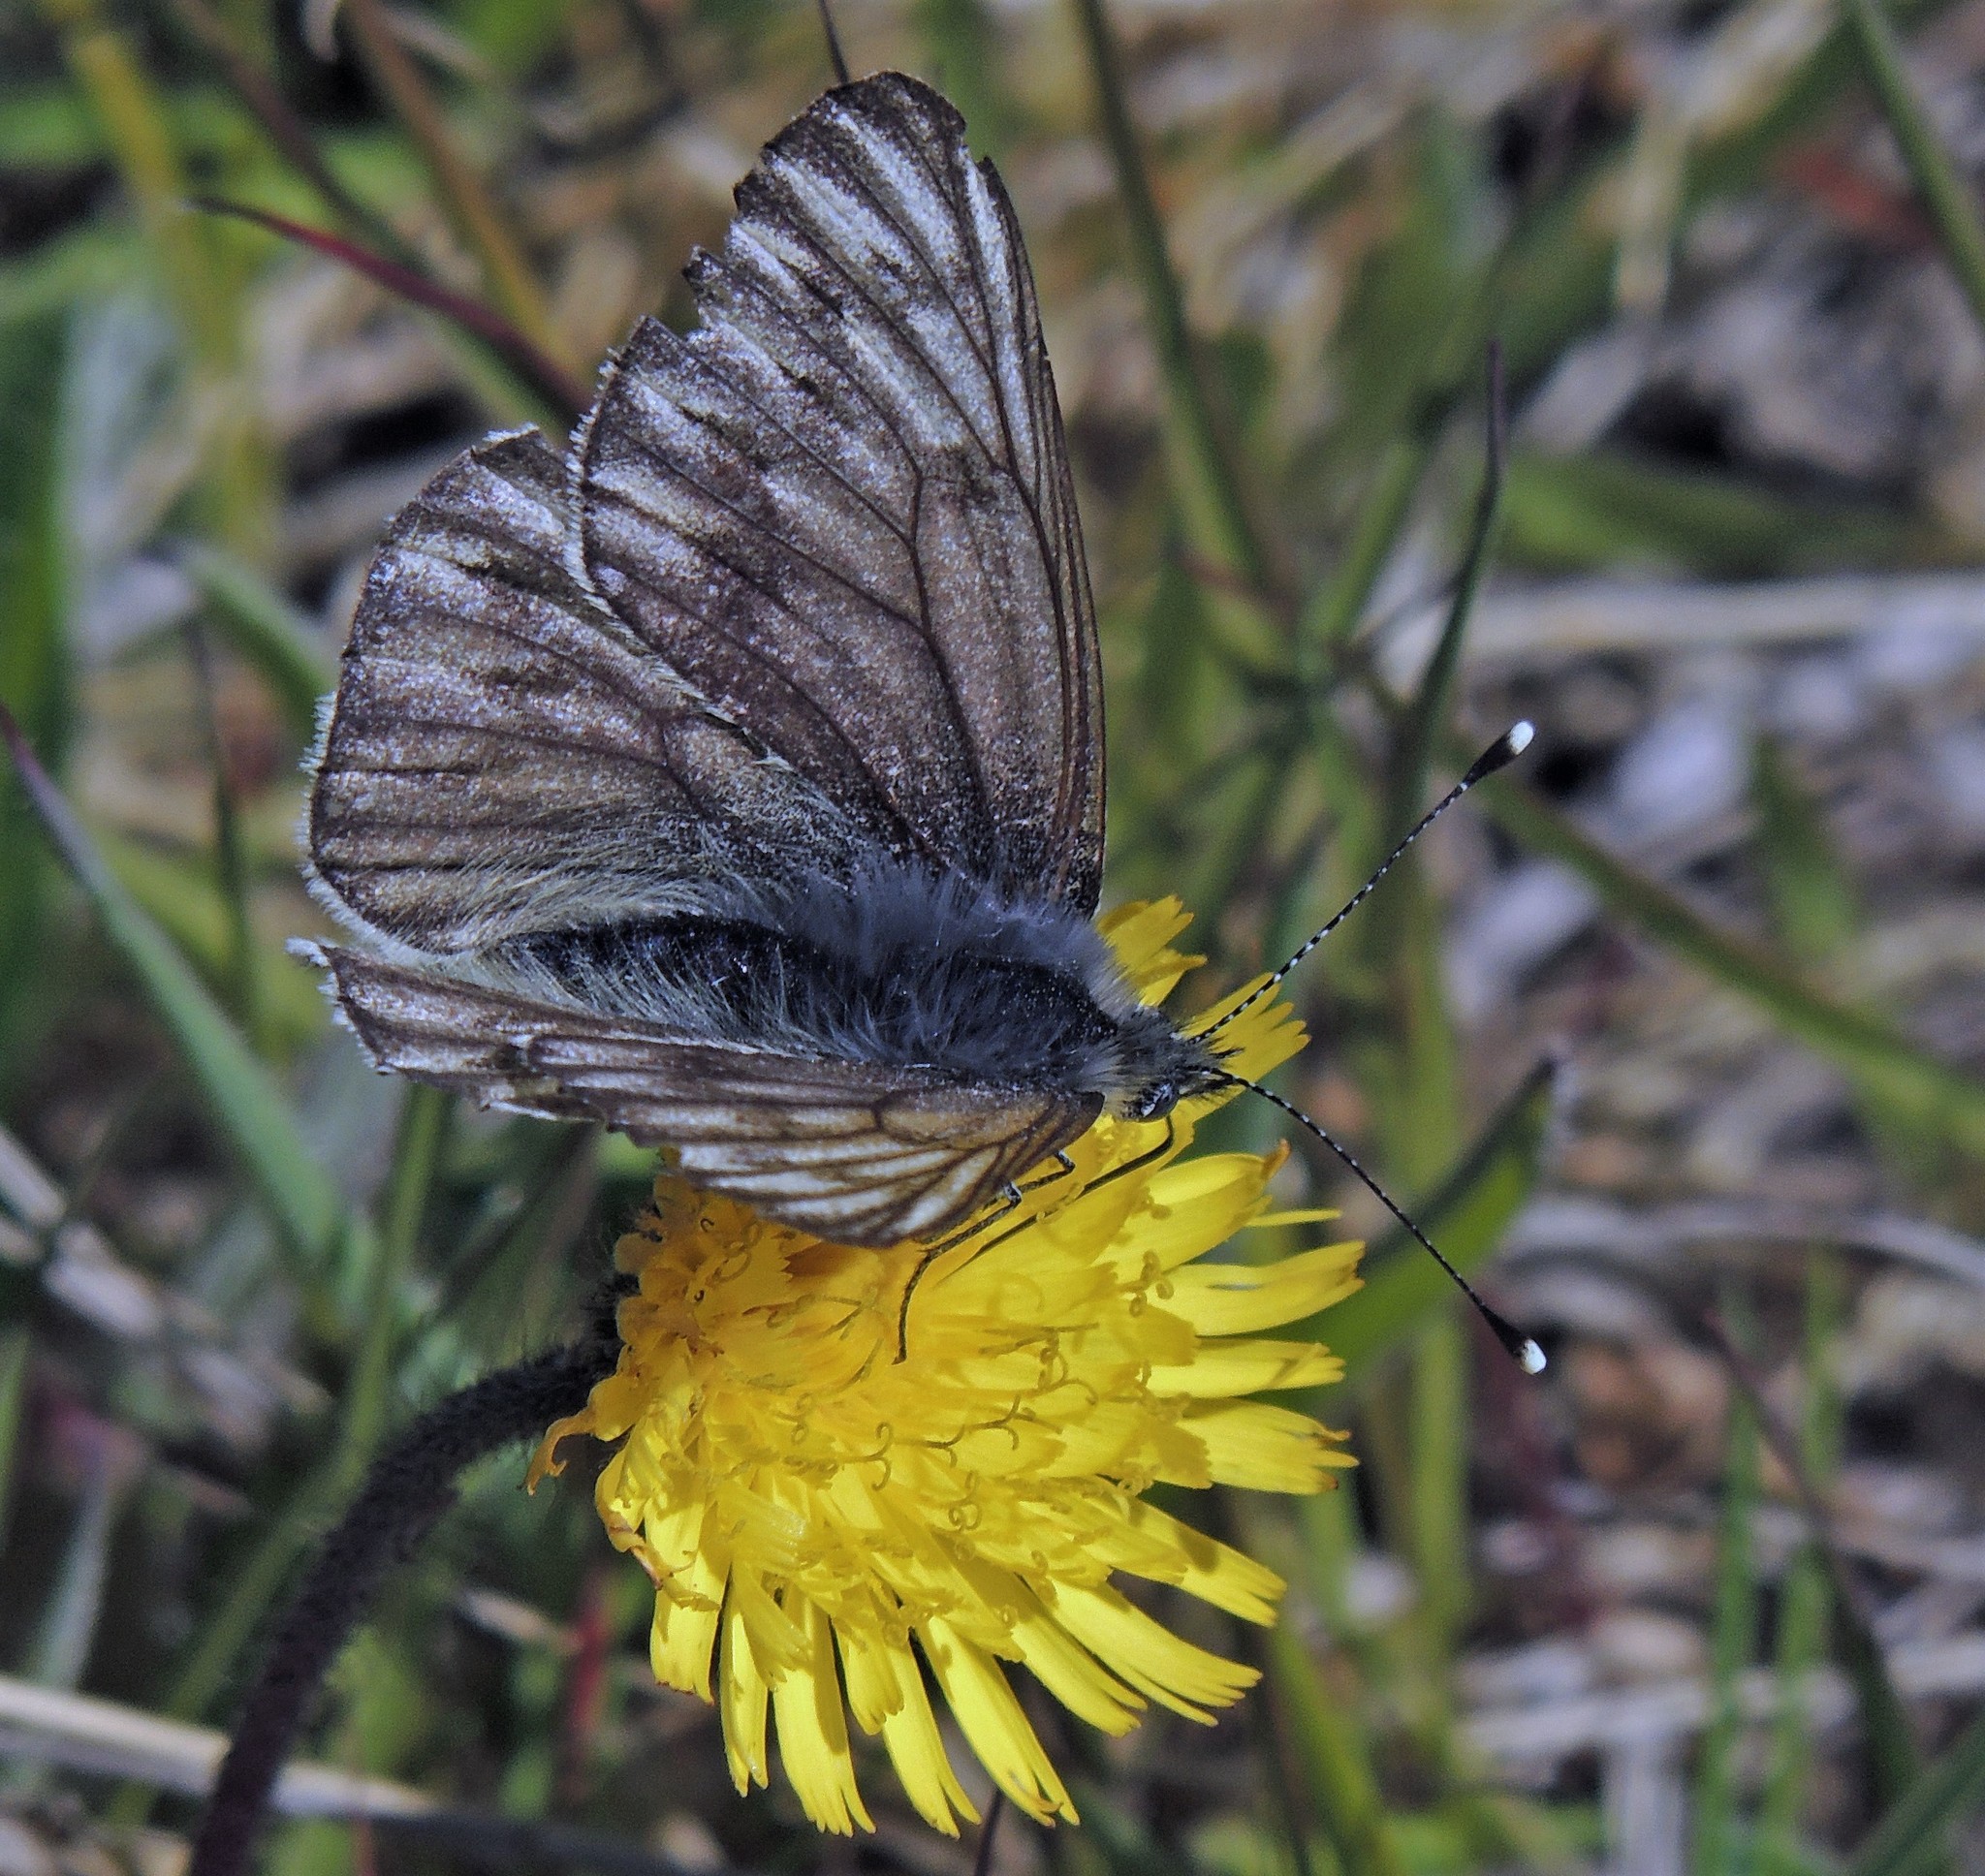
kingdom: Animalia
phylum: Arthropoda
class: Insecta
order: Lepidoptera
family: Pieridae
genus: Tatochila
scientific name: Tatochila theodice
